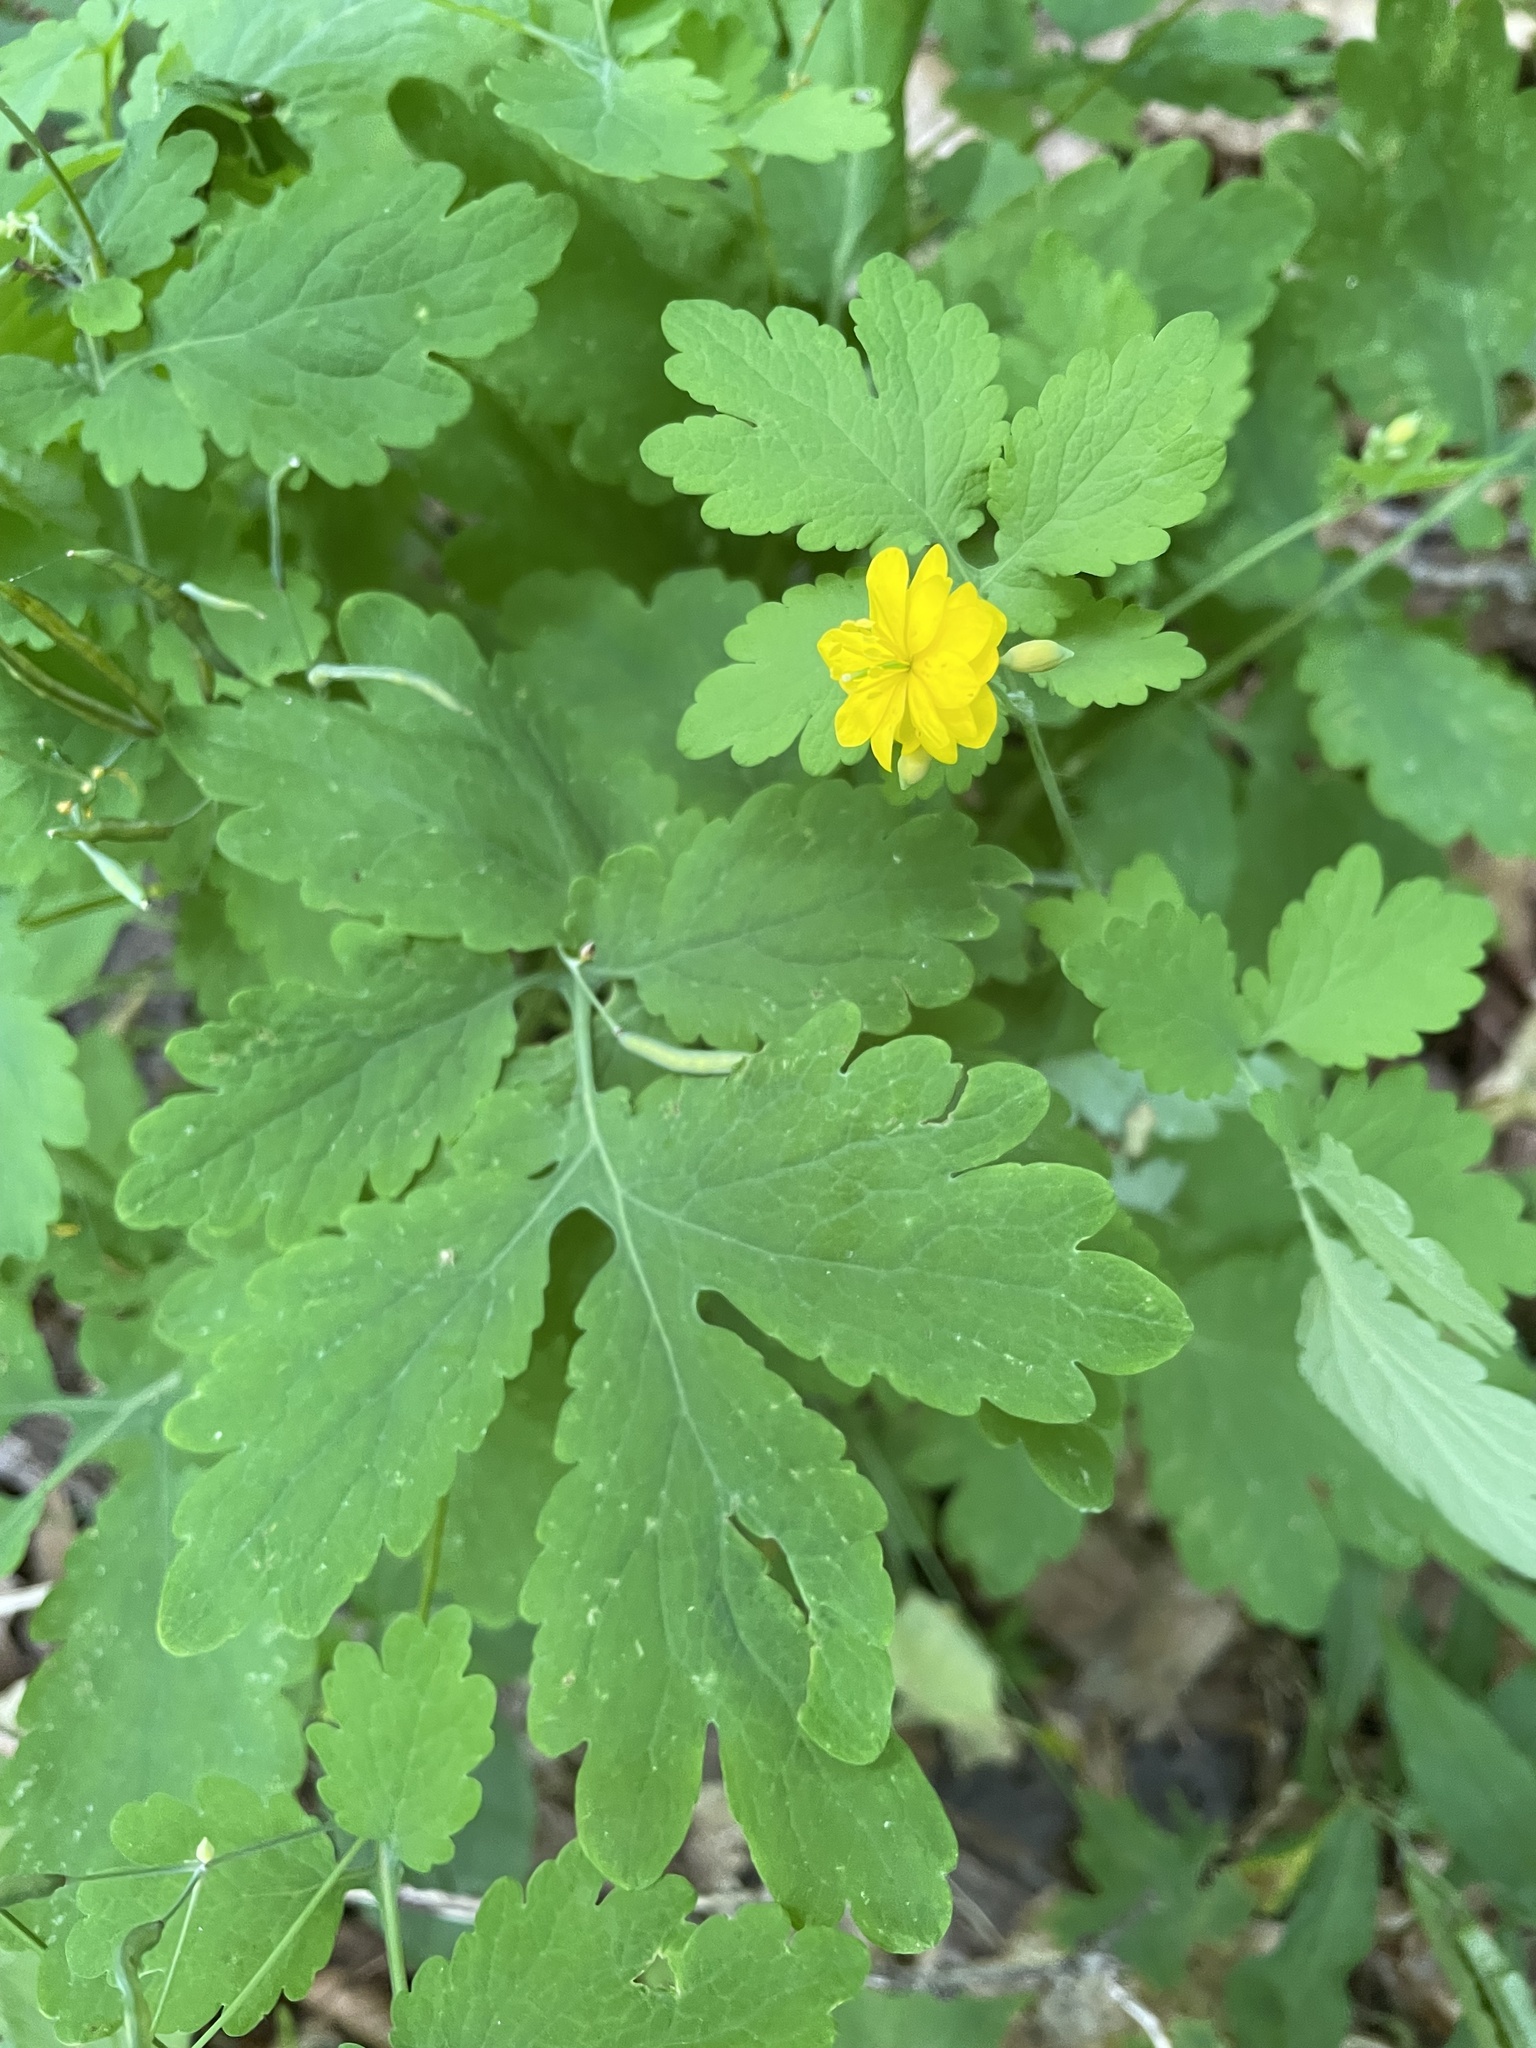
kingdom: Plantae
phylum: Tracheophyta
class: Magnoliopsida
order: Ranunculales
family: Papaveraceae
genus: Chelidonium
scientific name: Chelidonium majus
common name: Greater celandine
